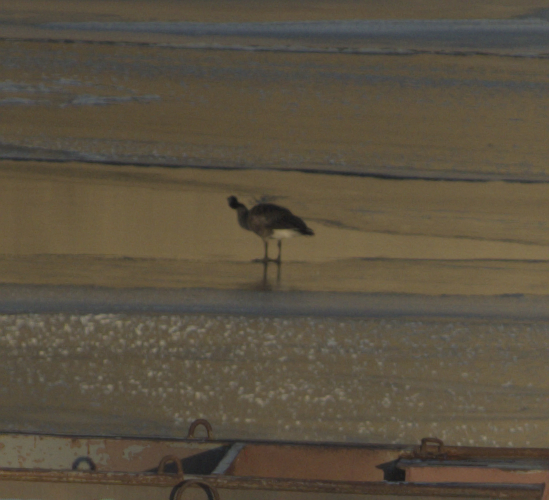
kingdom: Animalia
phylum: Chordata
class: Aves
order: Anseriformes
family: Anatidae
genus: Branta
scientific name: Branta canadensis
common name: Canada goose
